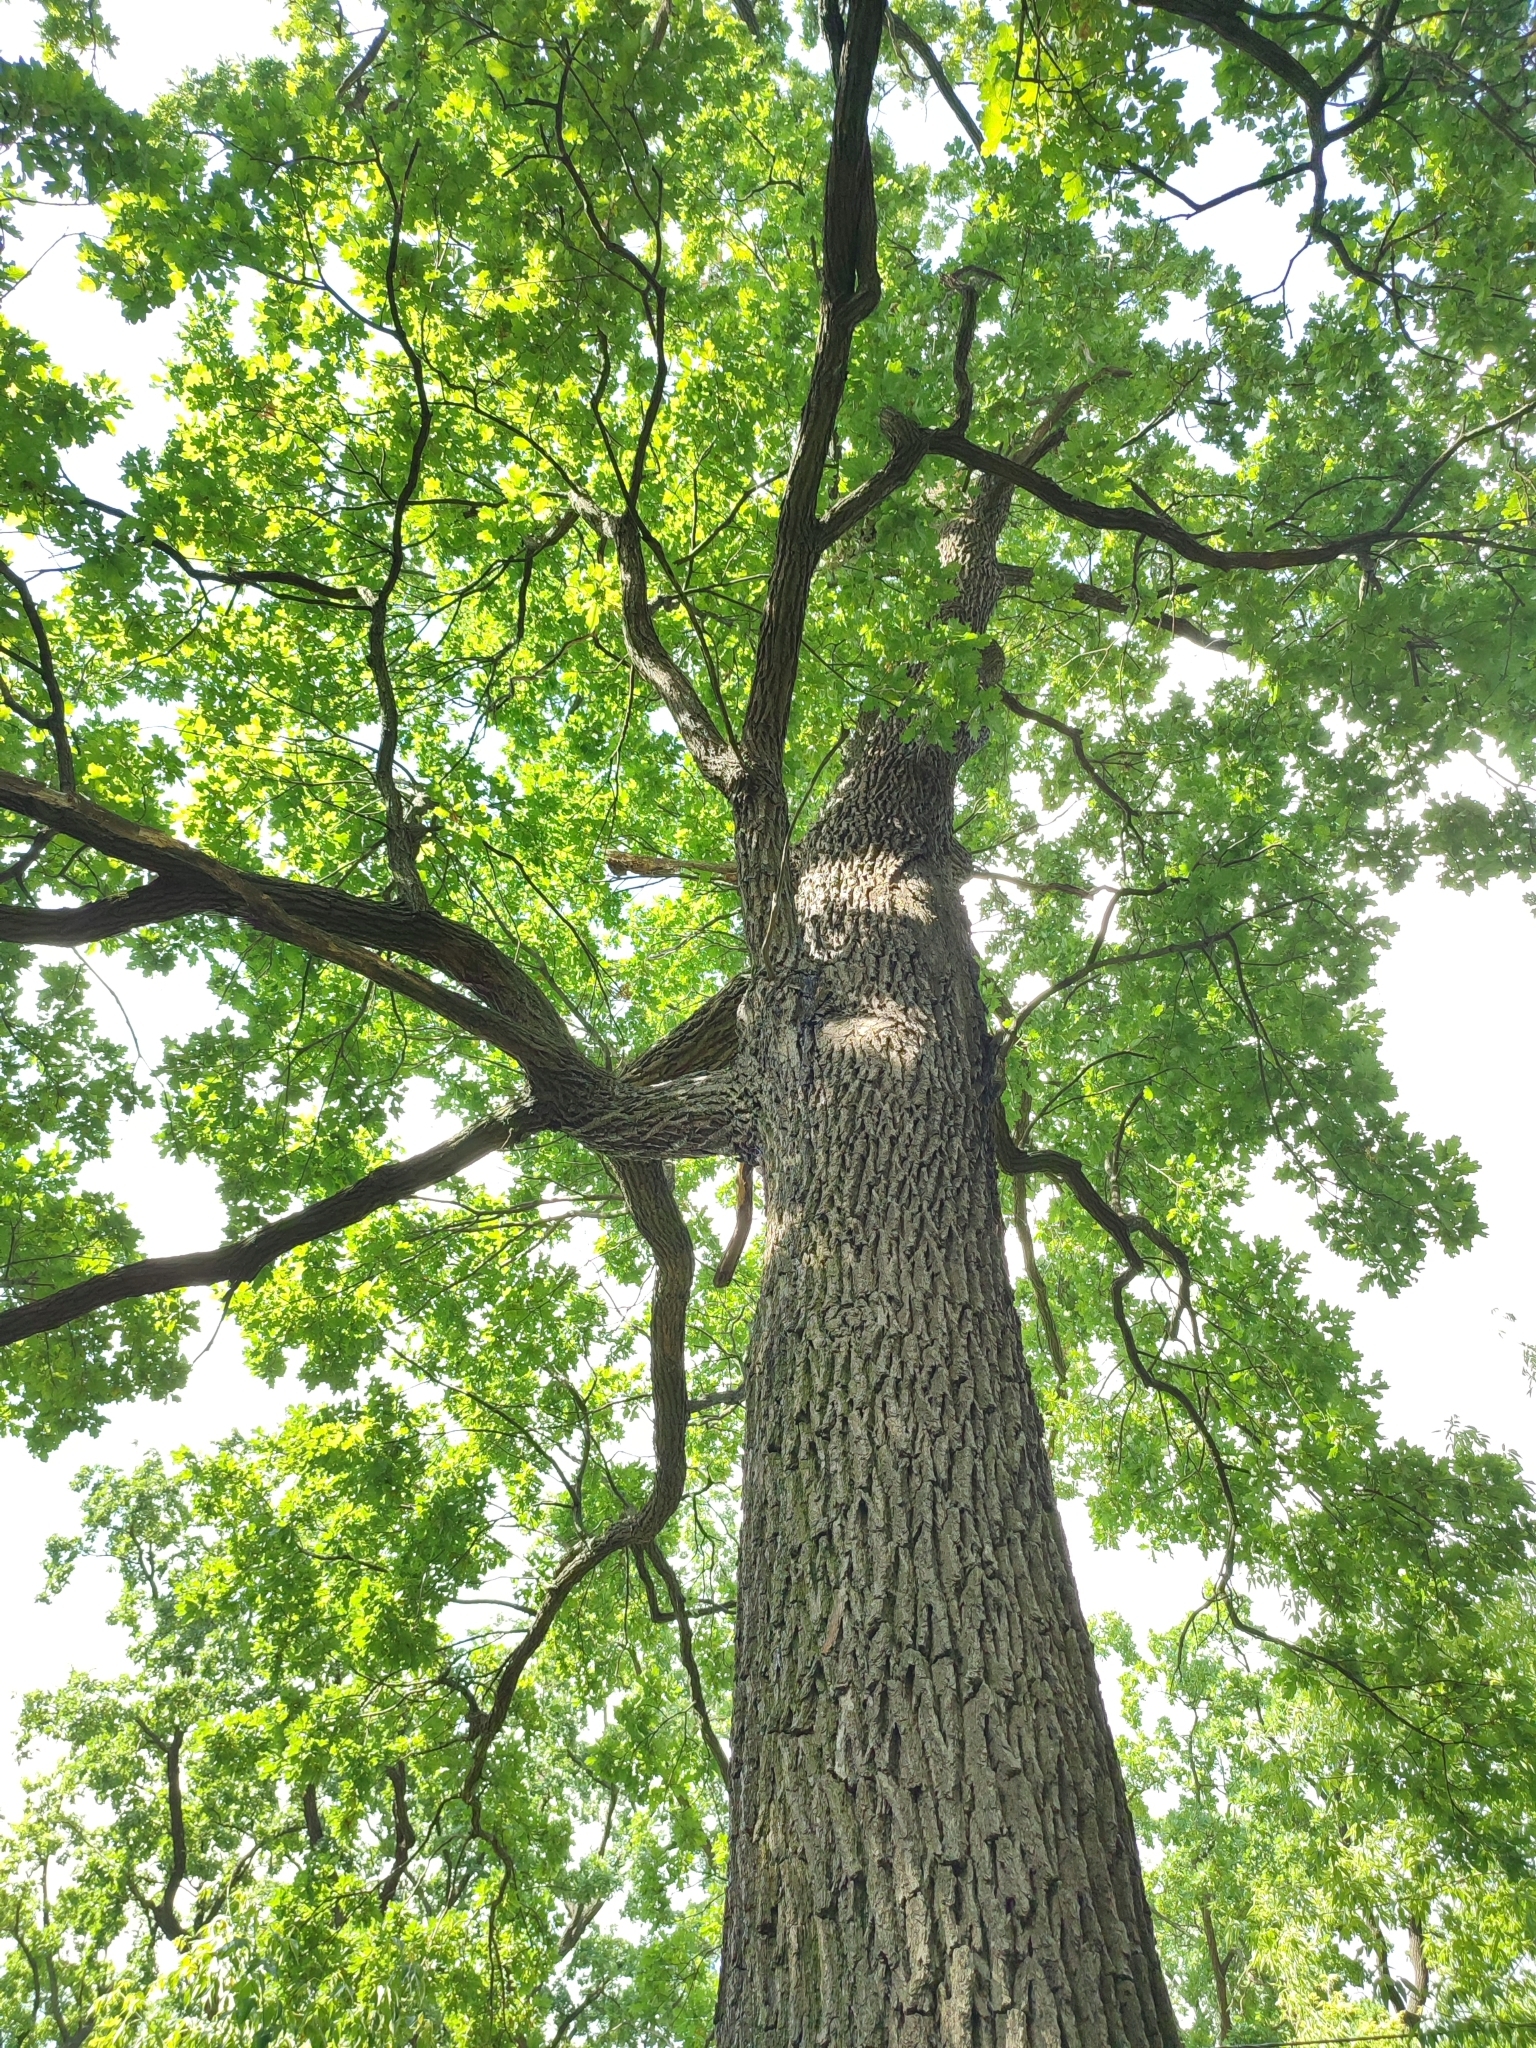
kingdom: Plantae
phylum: Tracheophyta
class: Magnoliopsida
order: Fagales
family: Fagaceae
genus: Quercus
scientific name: Quercus robur
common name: Pedunculate oak
